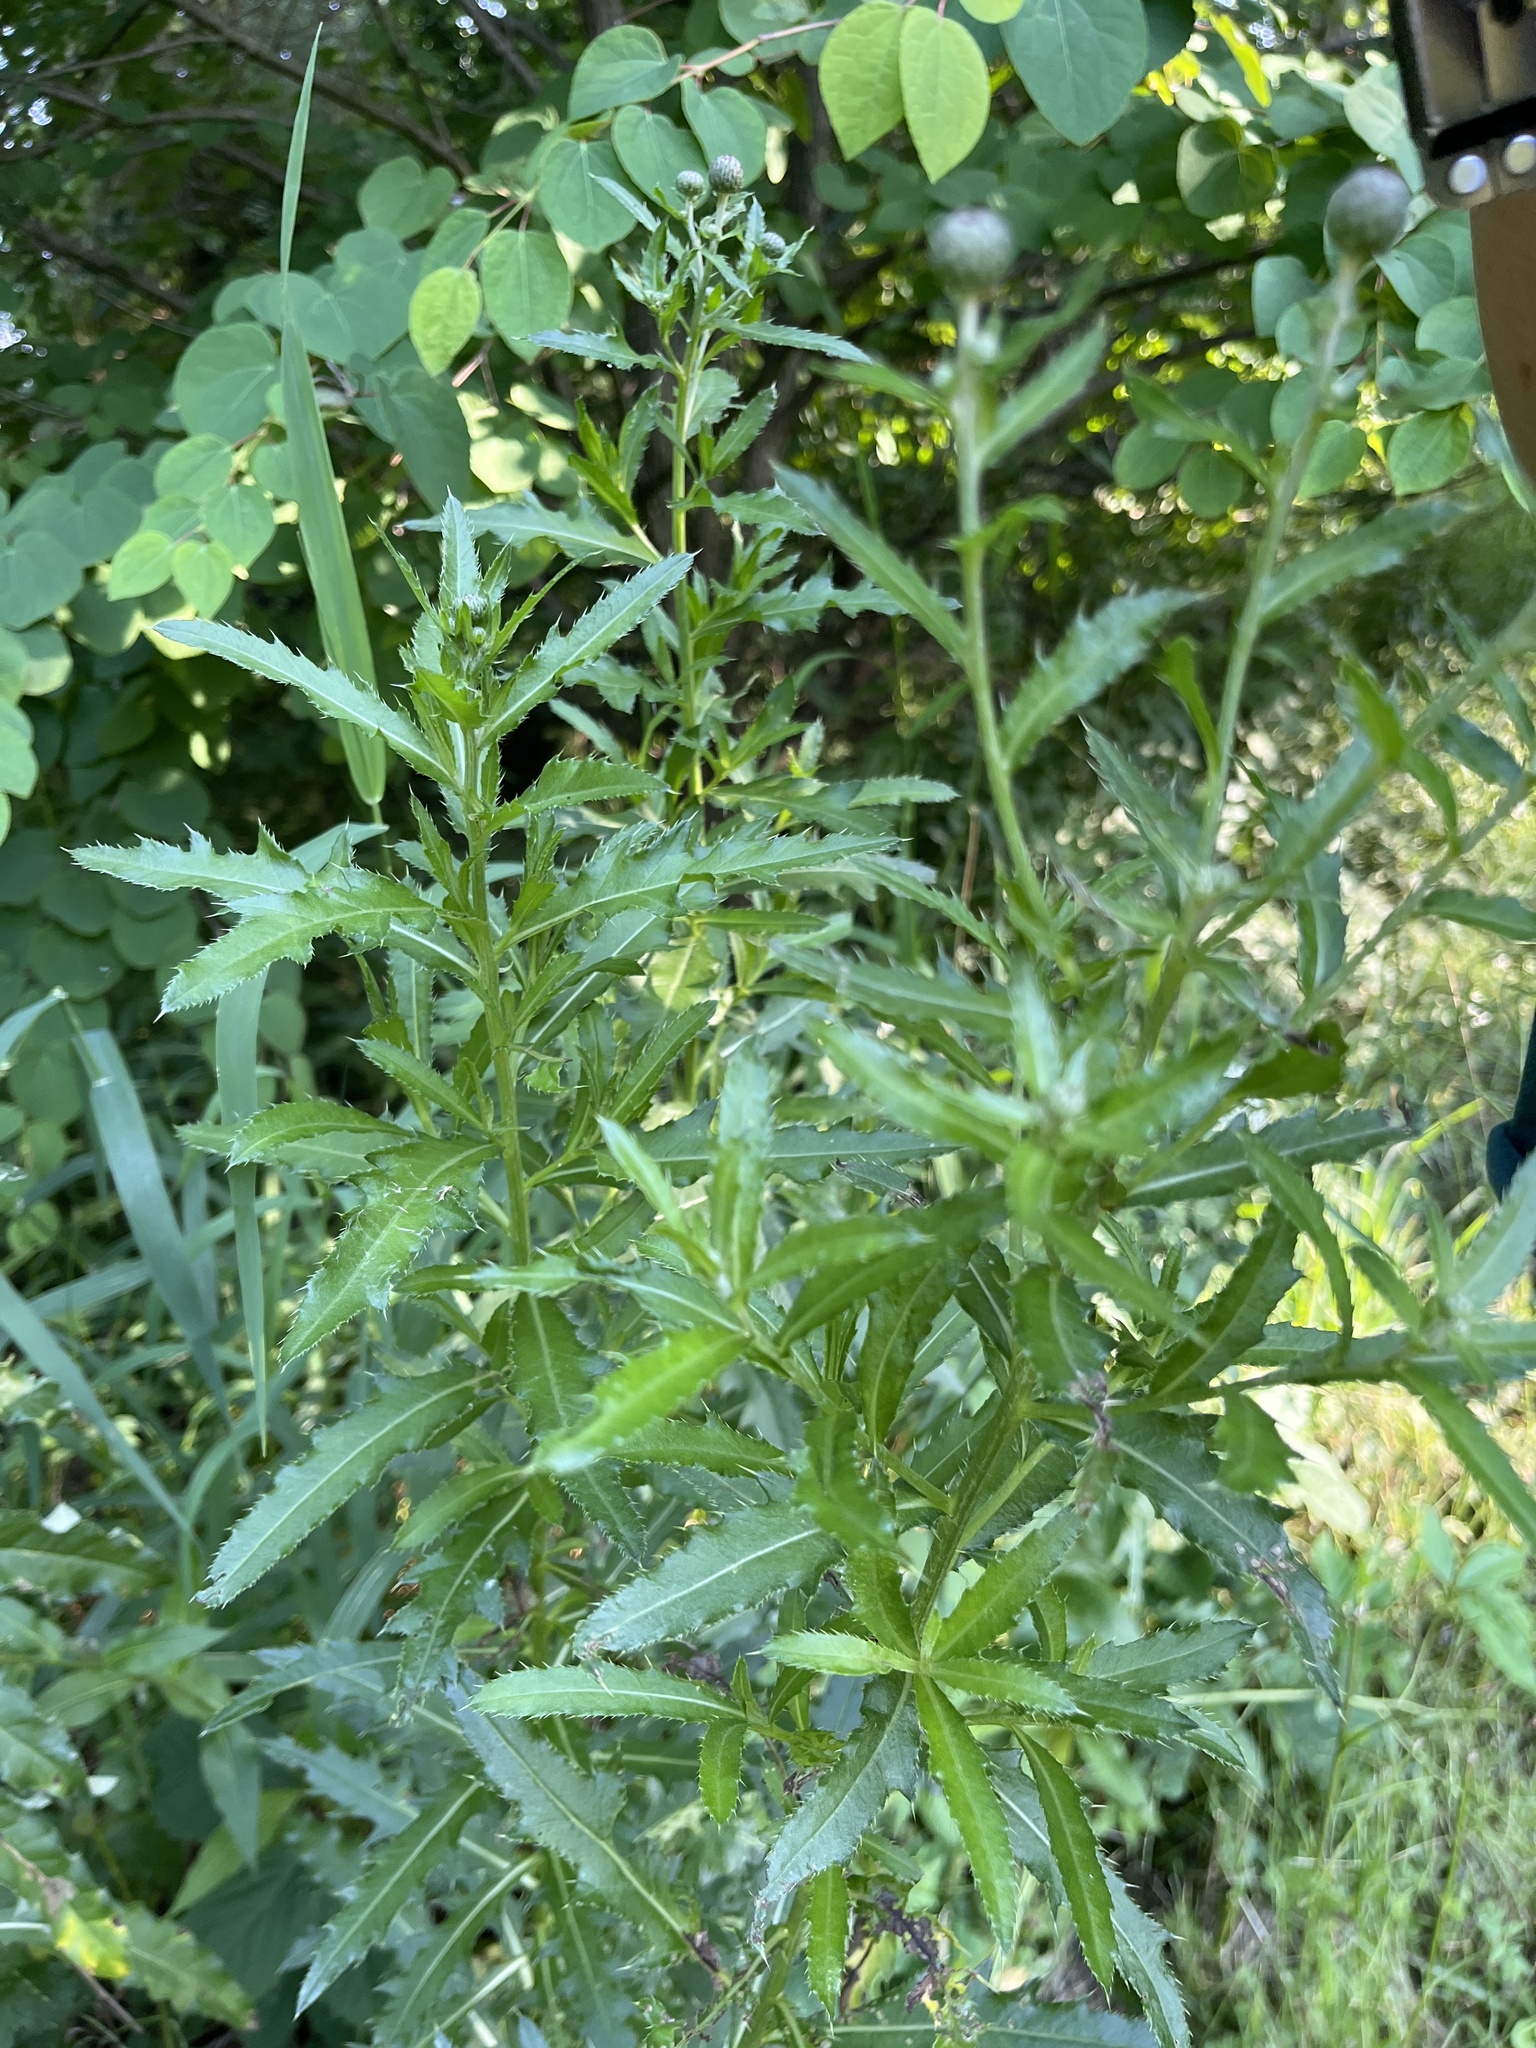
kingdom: Plantae
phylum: Tracheophyta
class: Magnoliopsida
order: Asterales
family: Asteraceae
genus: Cirsium
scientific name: Cirsium arvense
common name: Creeping thistle
